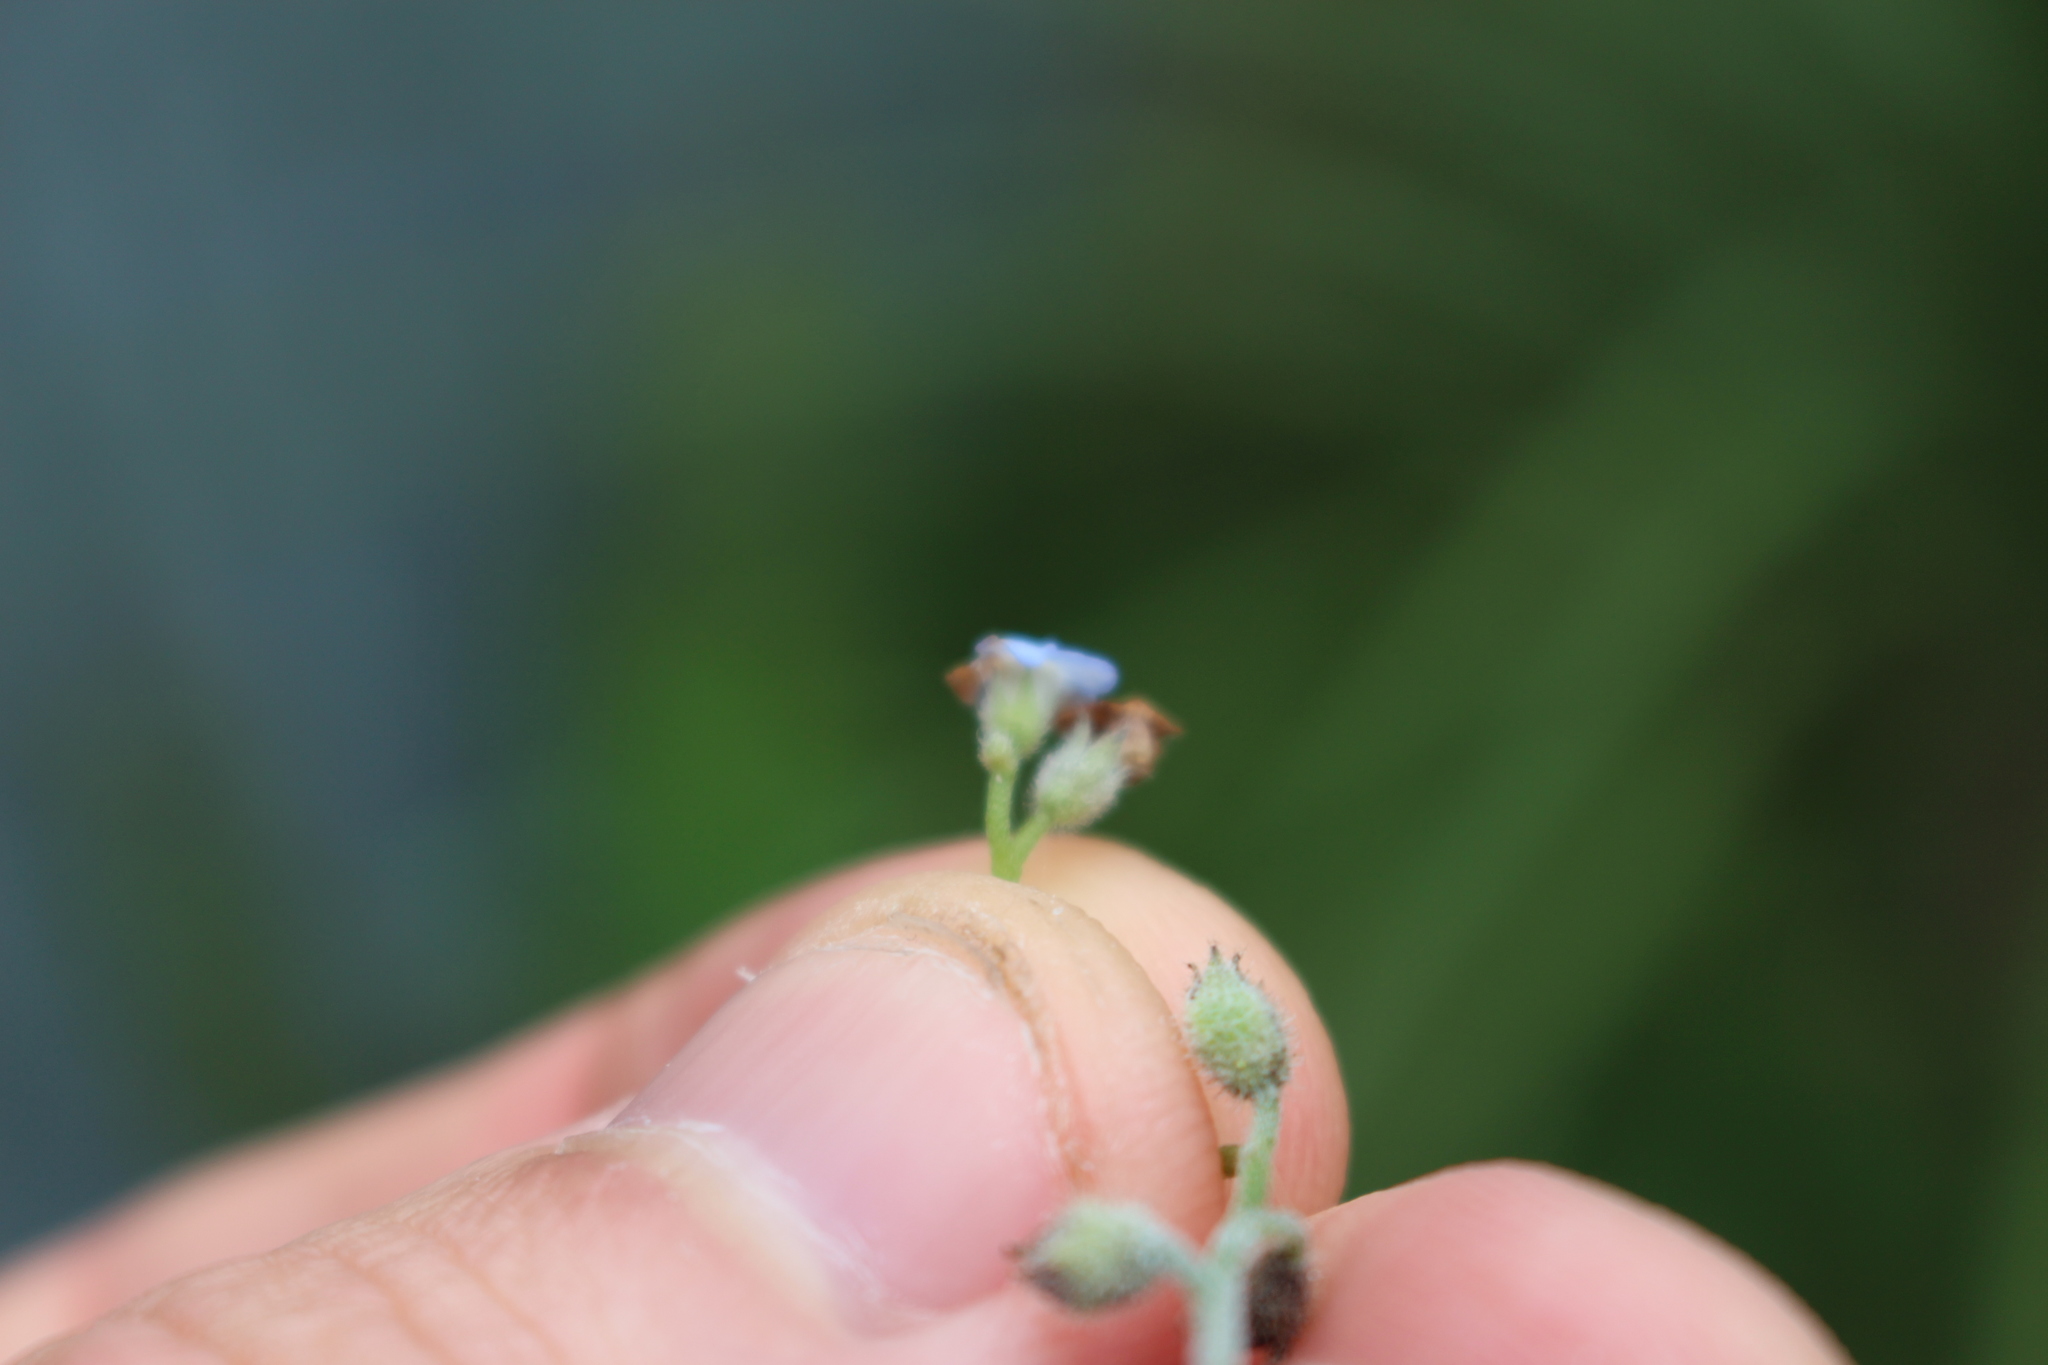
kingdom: Plantae
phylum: Tracheophyta
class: Magnoliopsida
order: Boraginales
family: Boraginaceae
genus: Myosotis
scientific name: Myosotis sylvatica
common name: Wood forget-me-not
